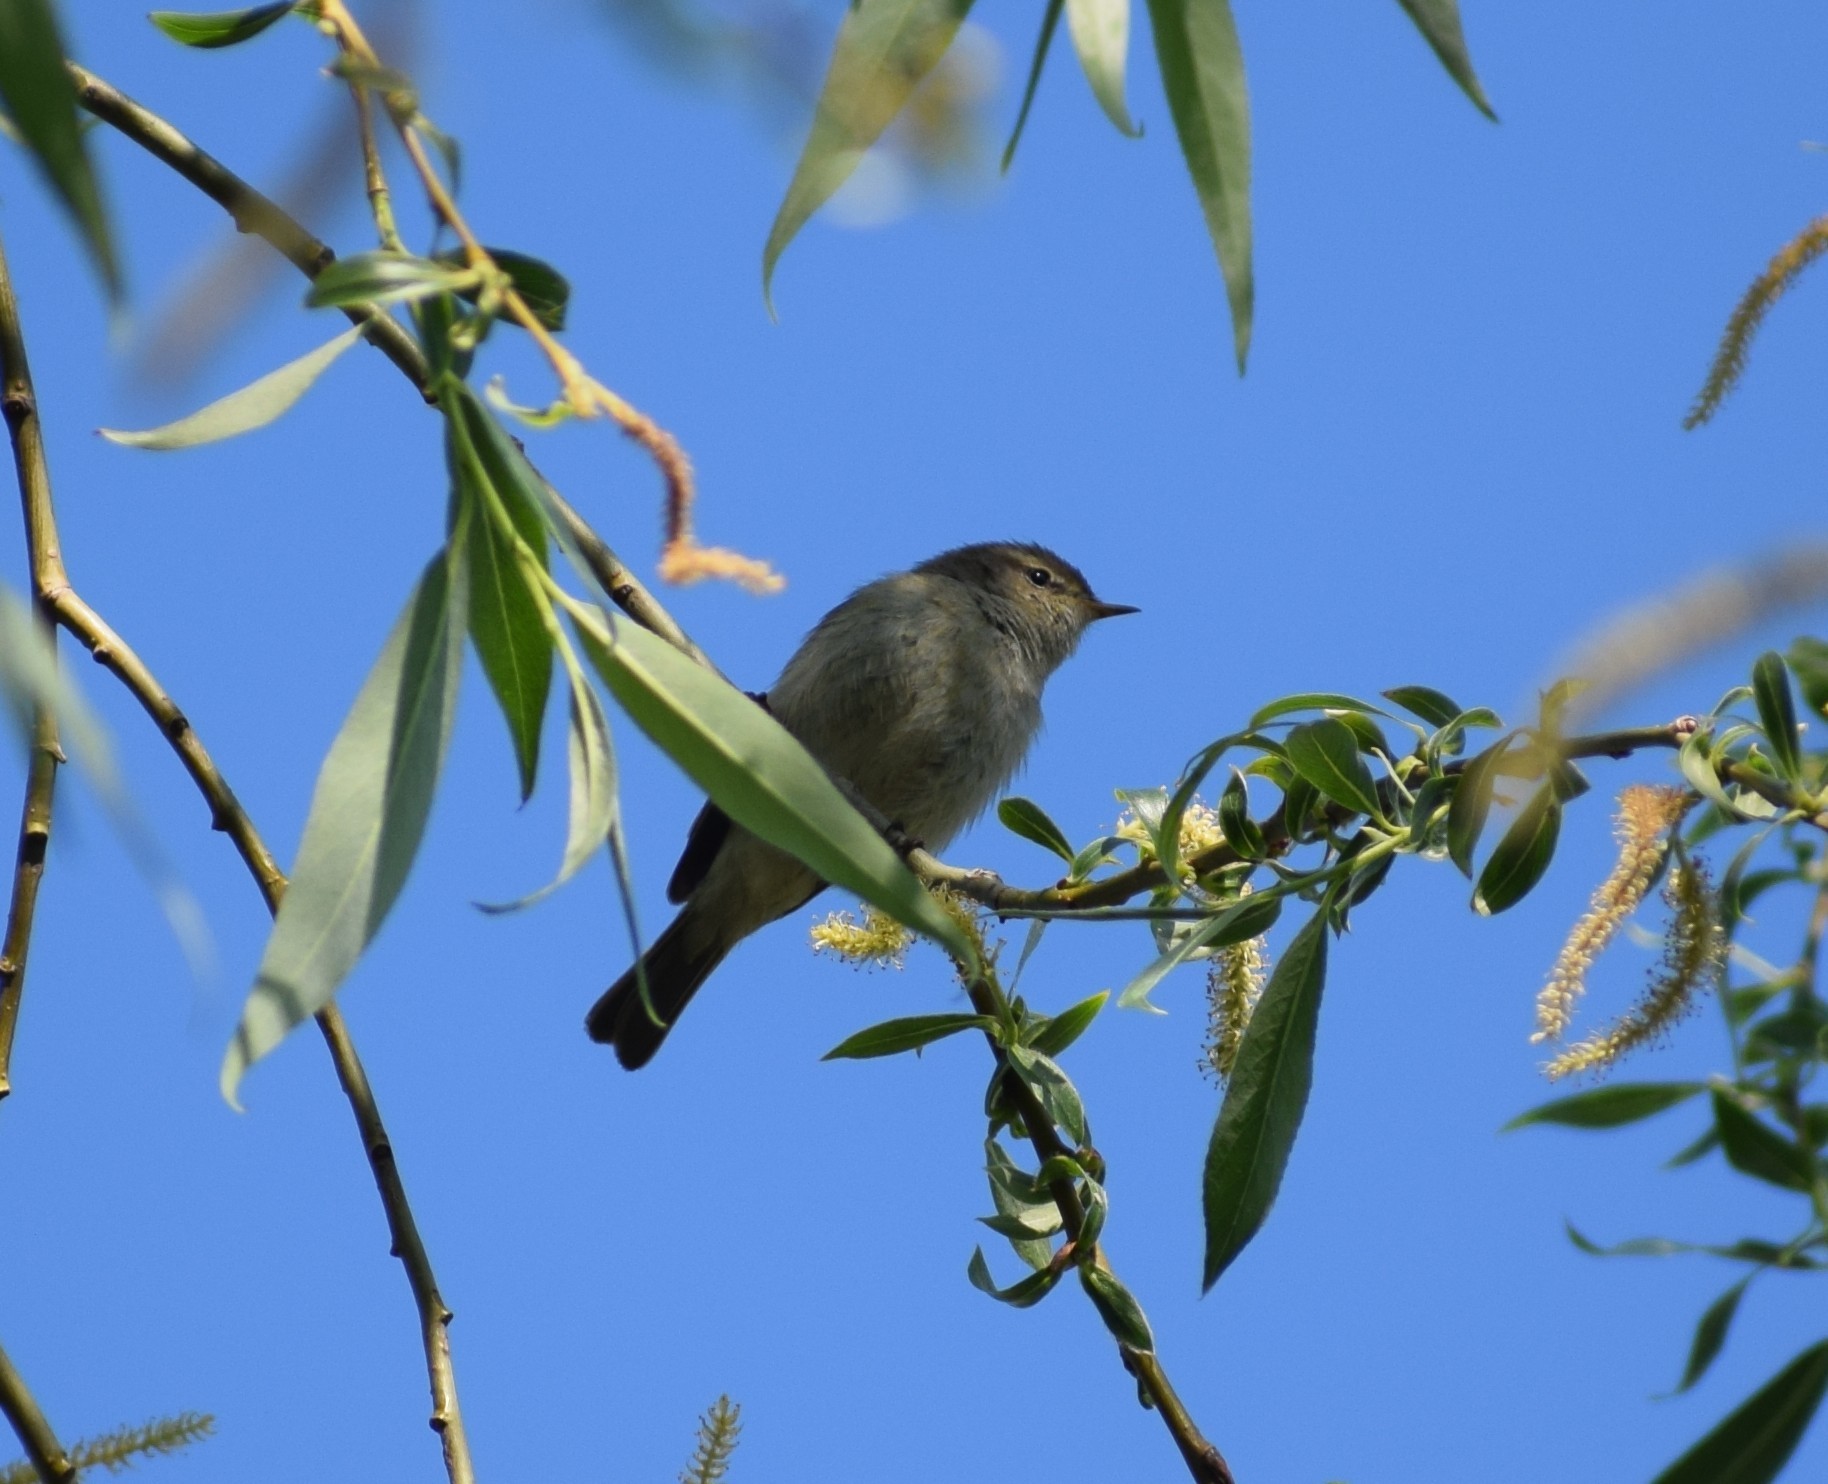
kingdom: Animalia
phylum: Chordata
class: Aves
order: Passeriformes
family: Phylloscopidae
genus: Phylloscopus
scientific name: Phylloscopus collybita
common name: Common chiffchaff
